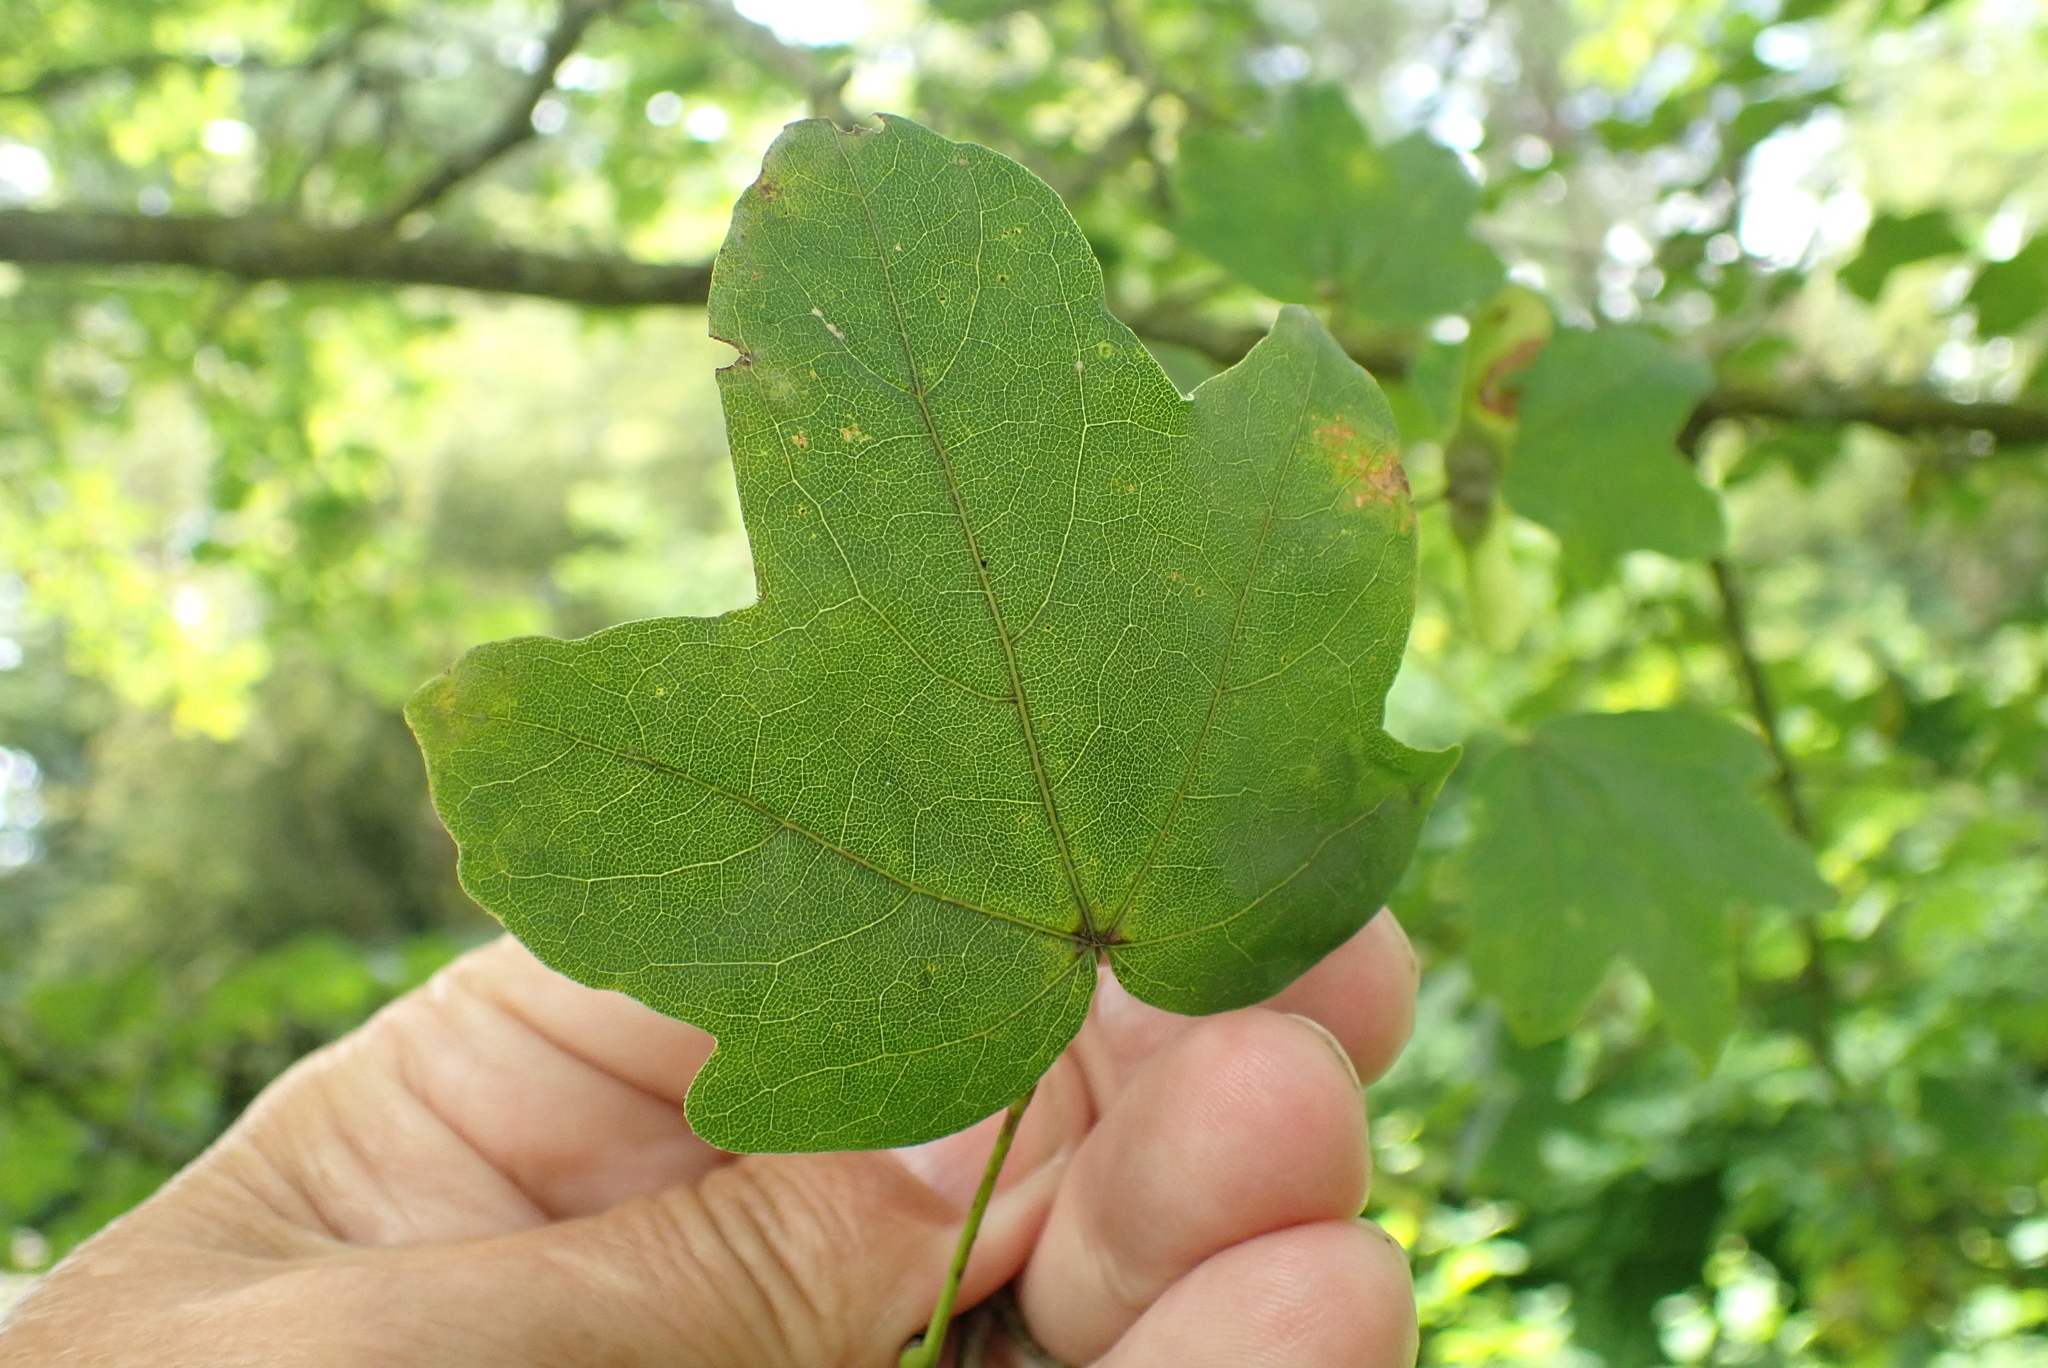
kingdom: Plantae
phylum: Tracheophyta
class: Magnoliopsida
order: Sapindales
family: Sapindaceae
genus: Acer
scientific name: Acer campestre
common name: Field maple
